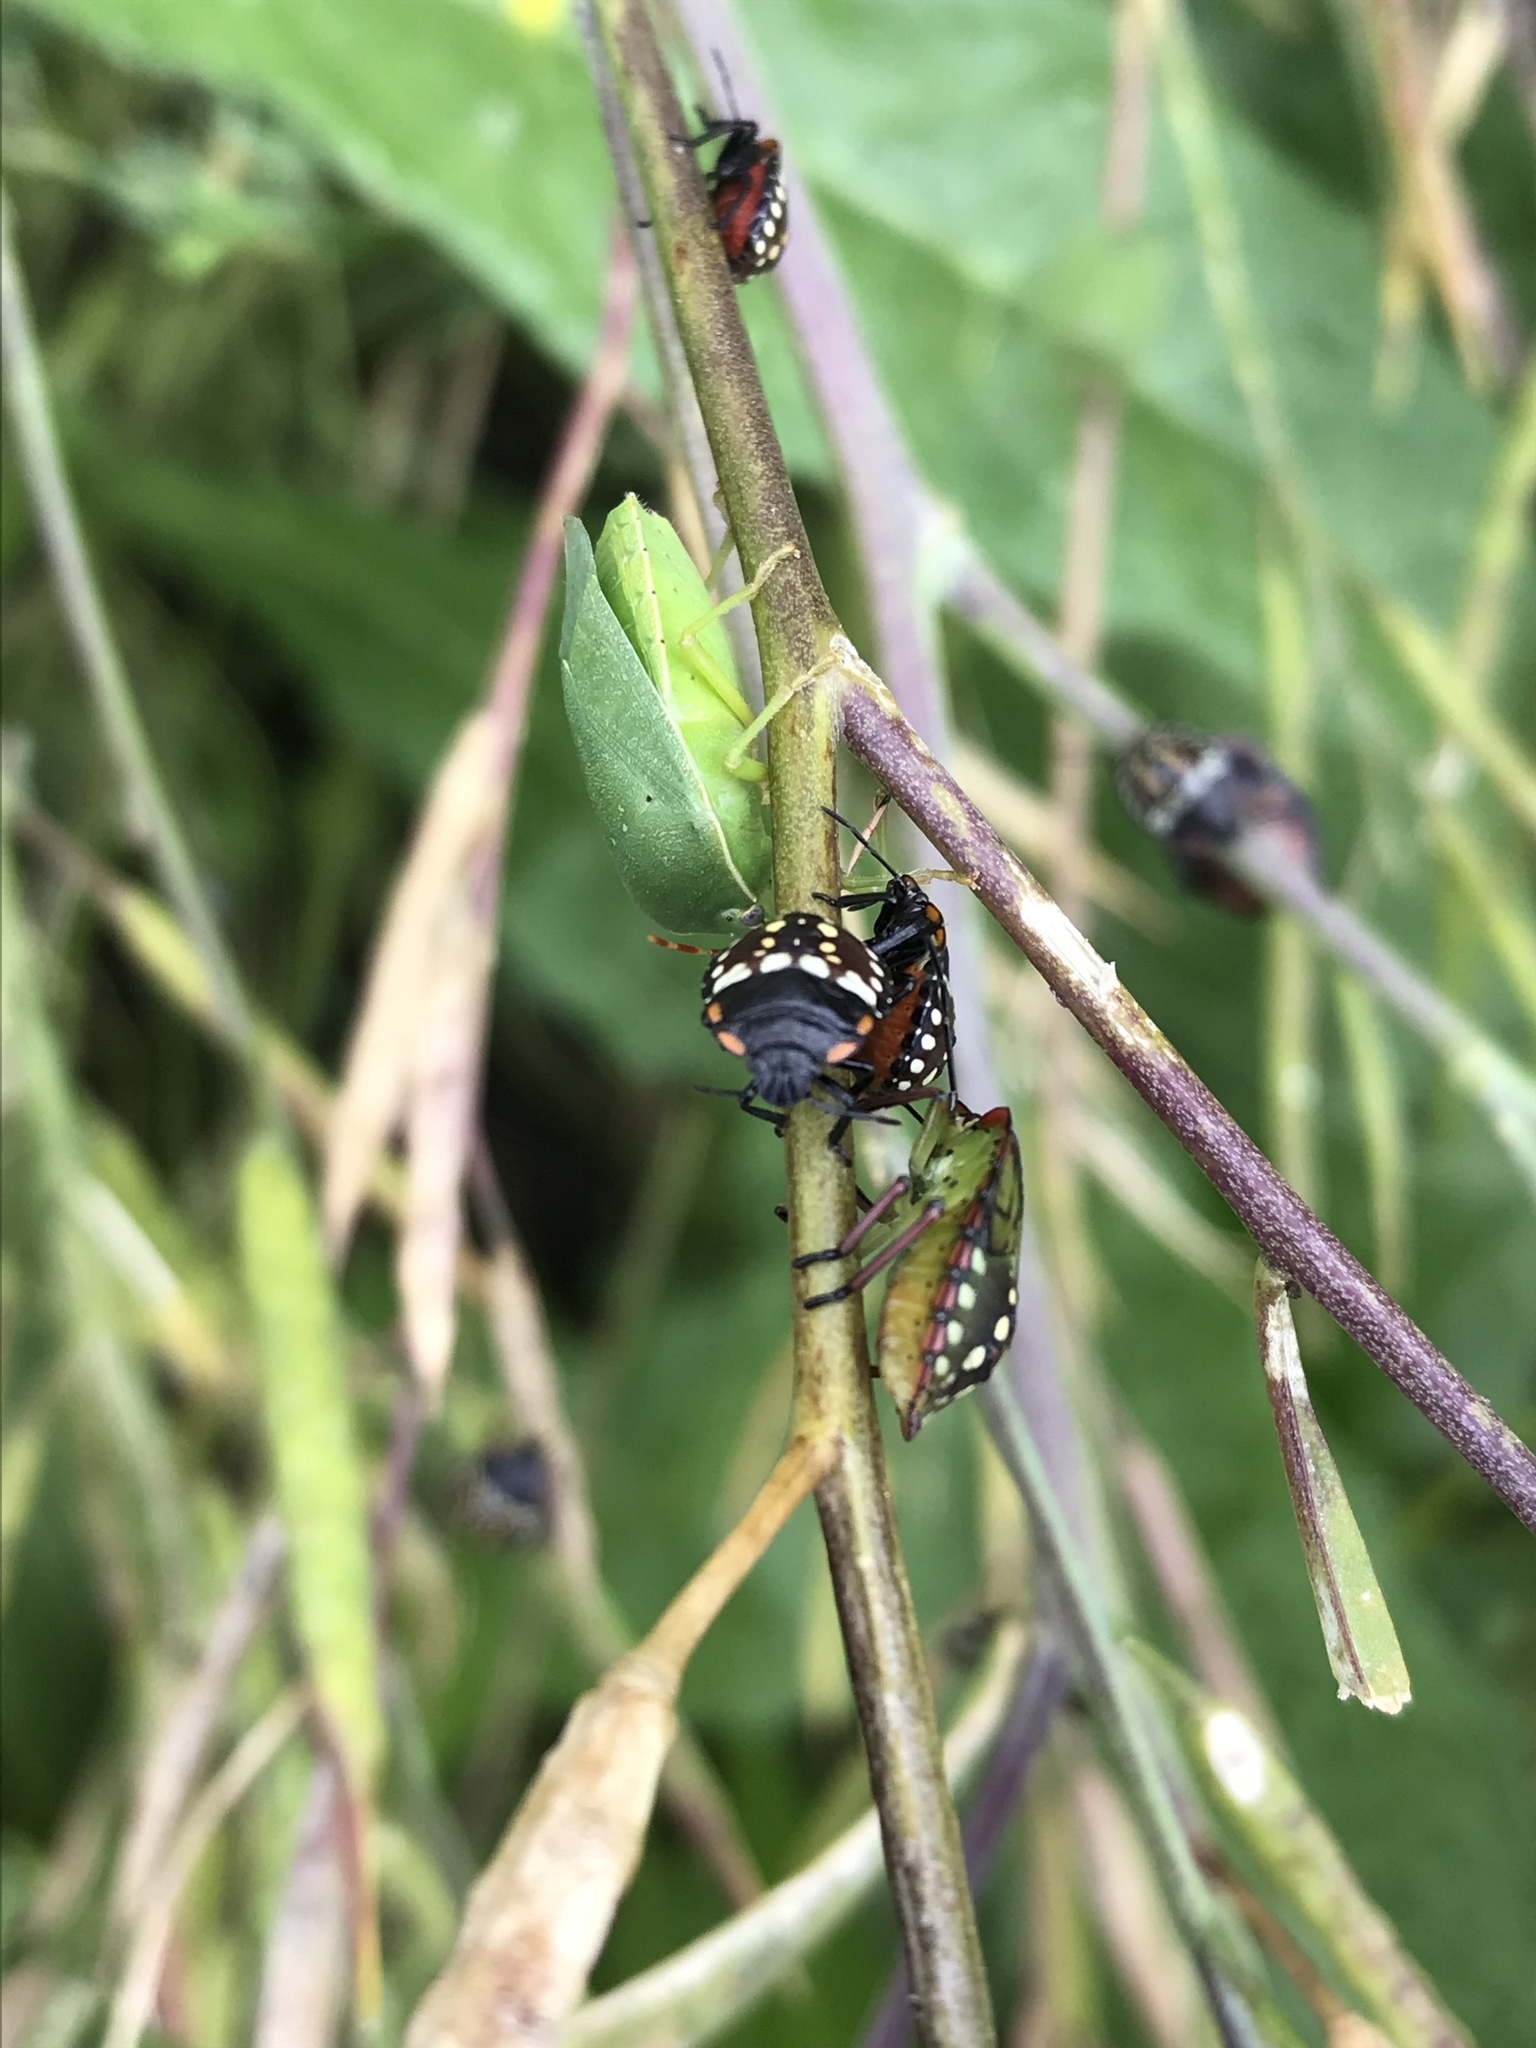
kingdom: Animalia
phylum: Arthropoda
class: Insecta
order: Hemiptera
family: Pentatomidae
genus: Nezara
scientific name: Nezara viridula
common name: Southern green stink bug
